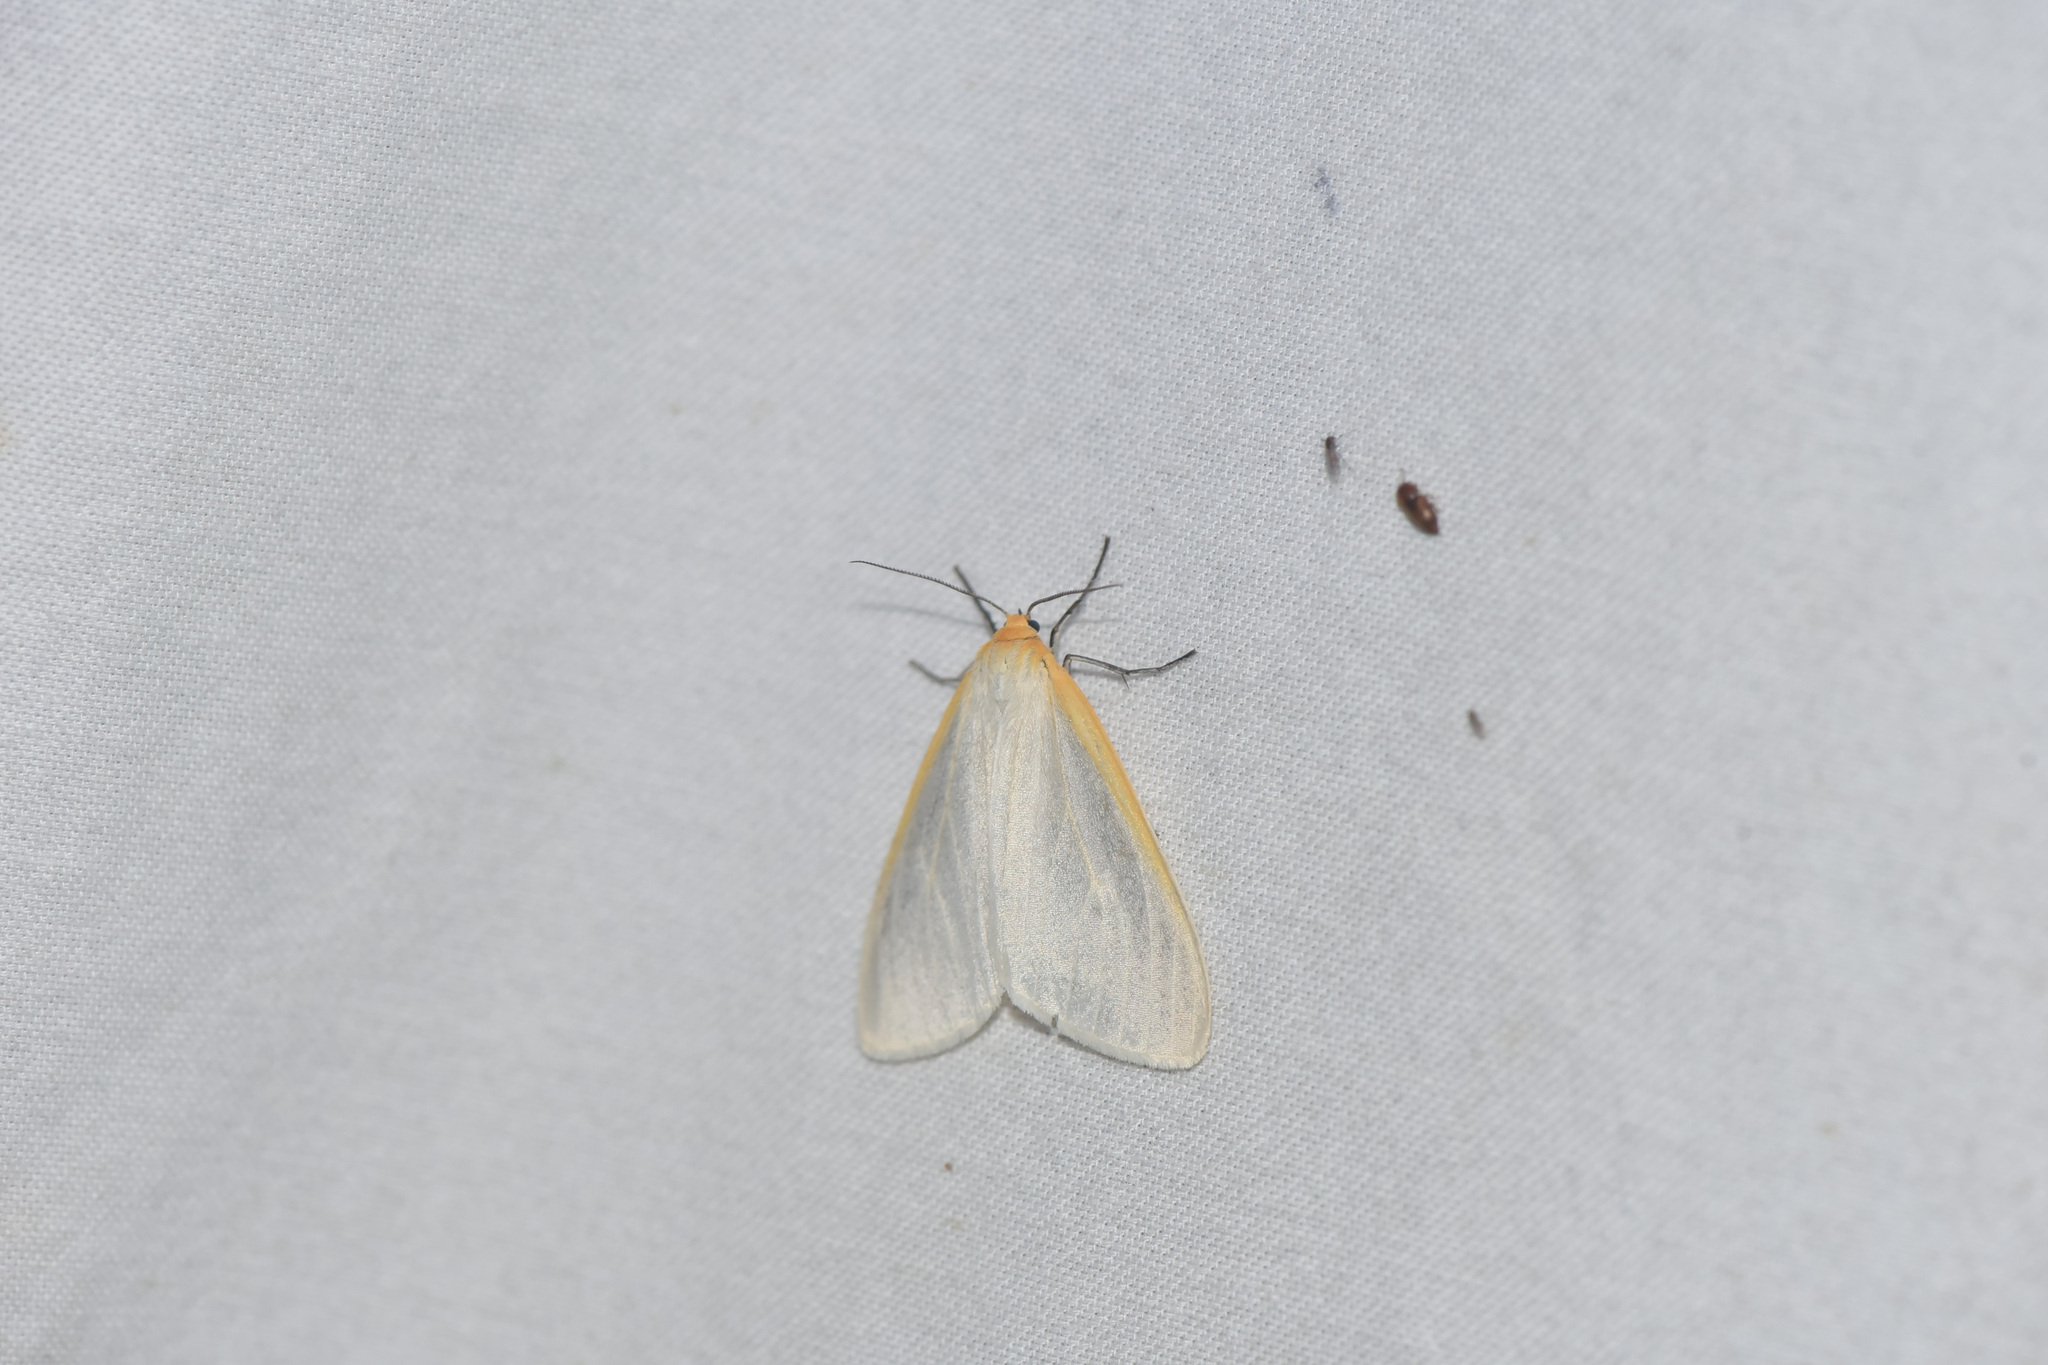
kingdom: Animalia
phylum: Arthropoda
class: Insecta
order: Lepidoptera
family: Erebidae
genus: Cycnia
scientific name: Cycnia tenera
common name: Delicate cycnia moth
